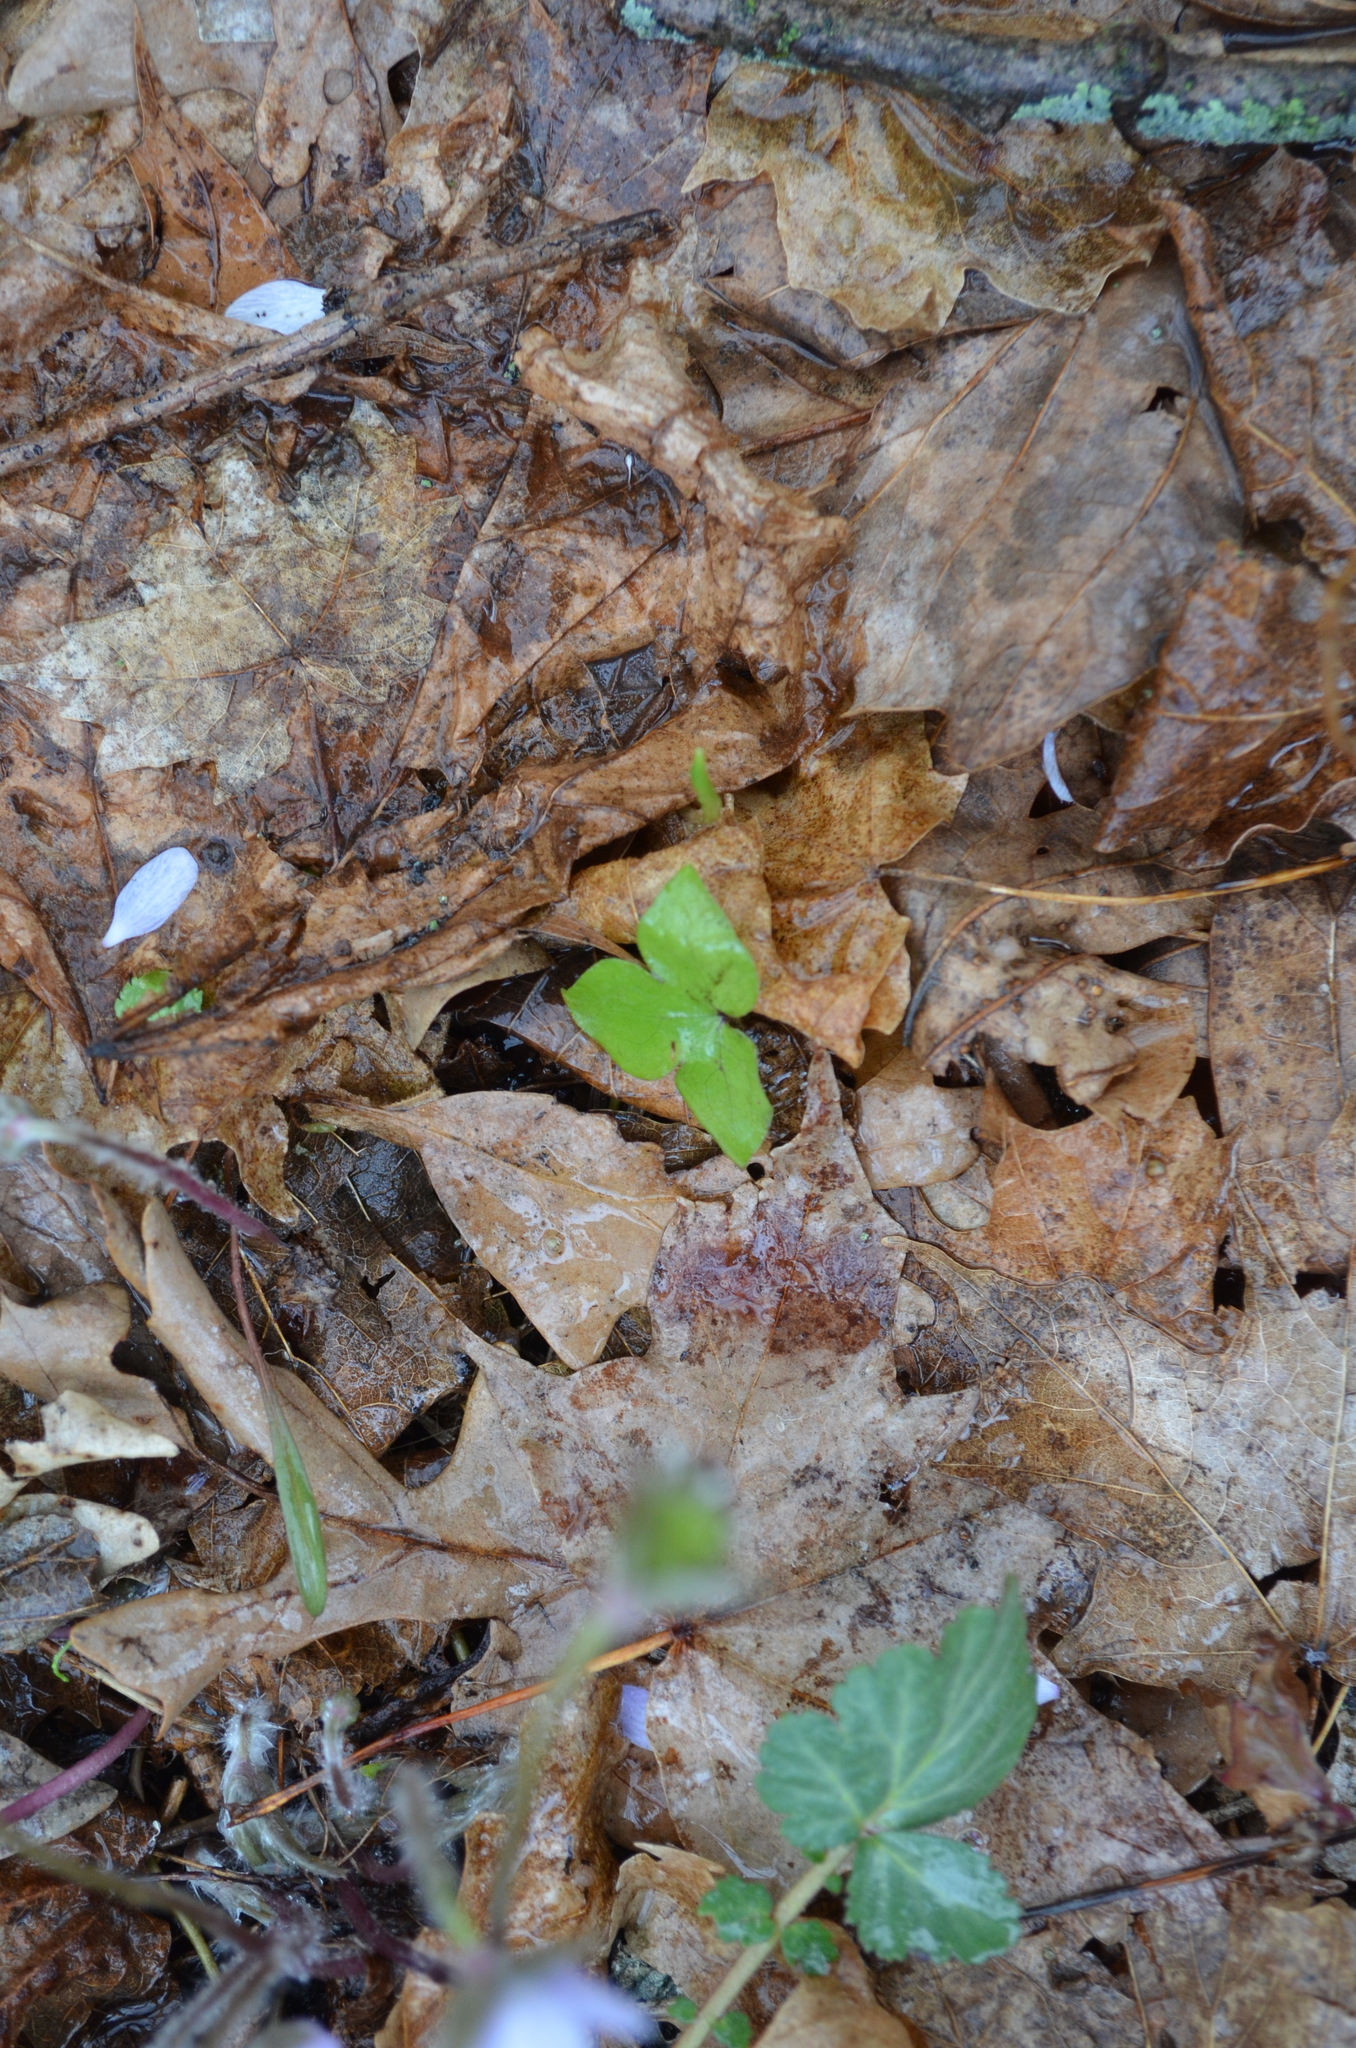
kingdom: Plantae
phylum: Tracheophyta
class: Magnoliopsida
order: Ranunculales
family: Ranunculaceae
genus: Hepatica
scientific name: Hepatica acutiloba
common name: Sharp-lobed hepatica
